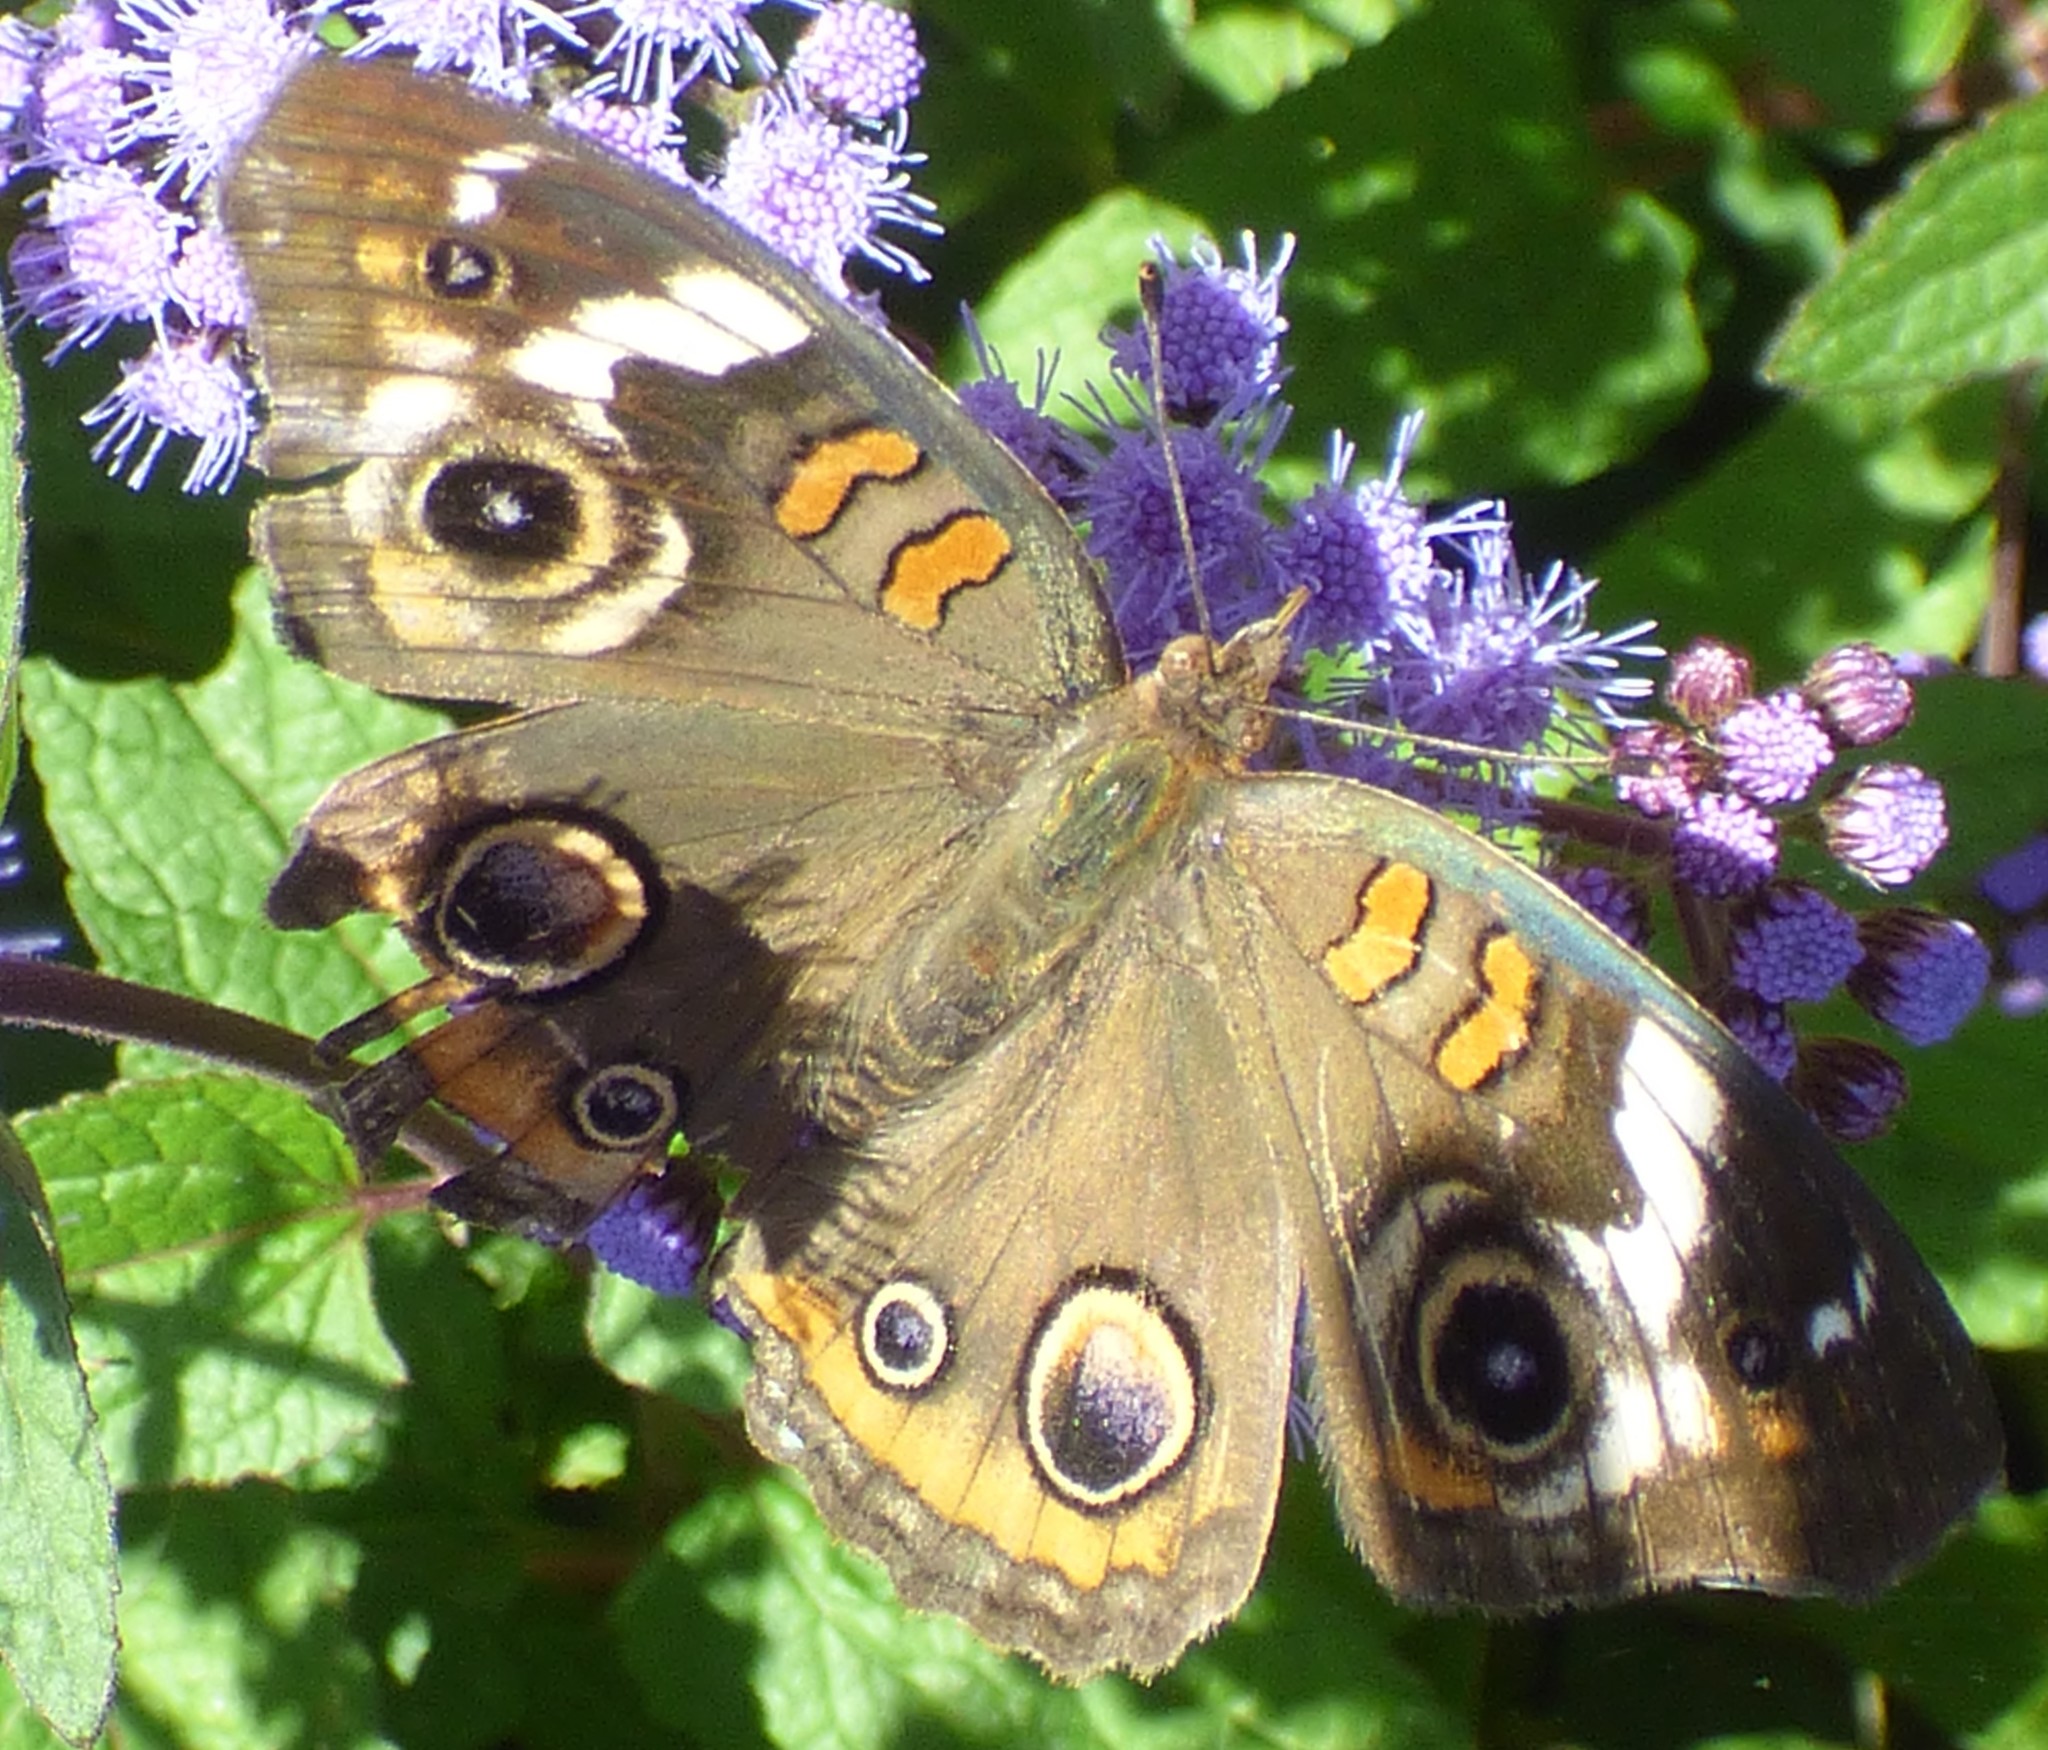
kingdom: Animalia
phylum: Arthropoda
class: Insecta
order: Lepidoptera
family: Nymphalidae
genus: Junonia
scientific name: Junonia coenia
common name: Common buckeye
